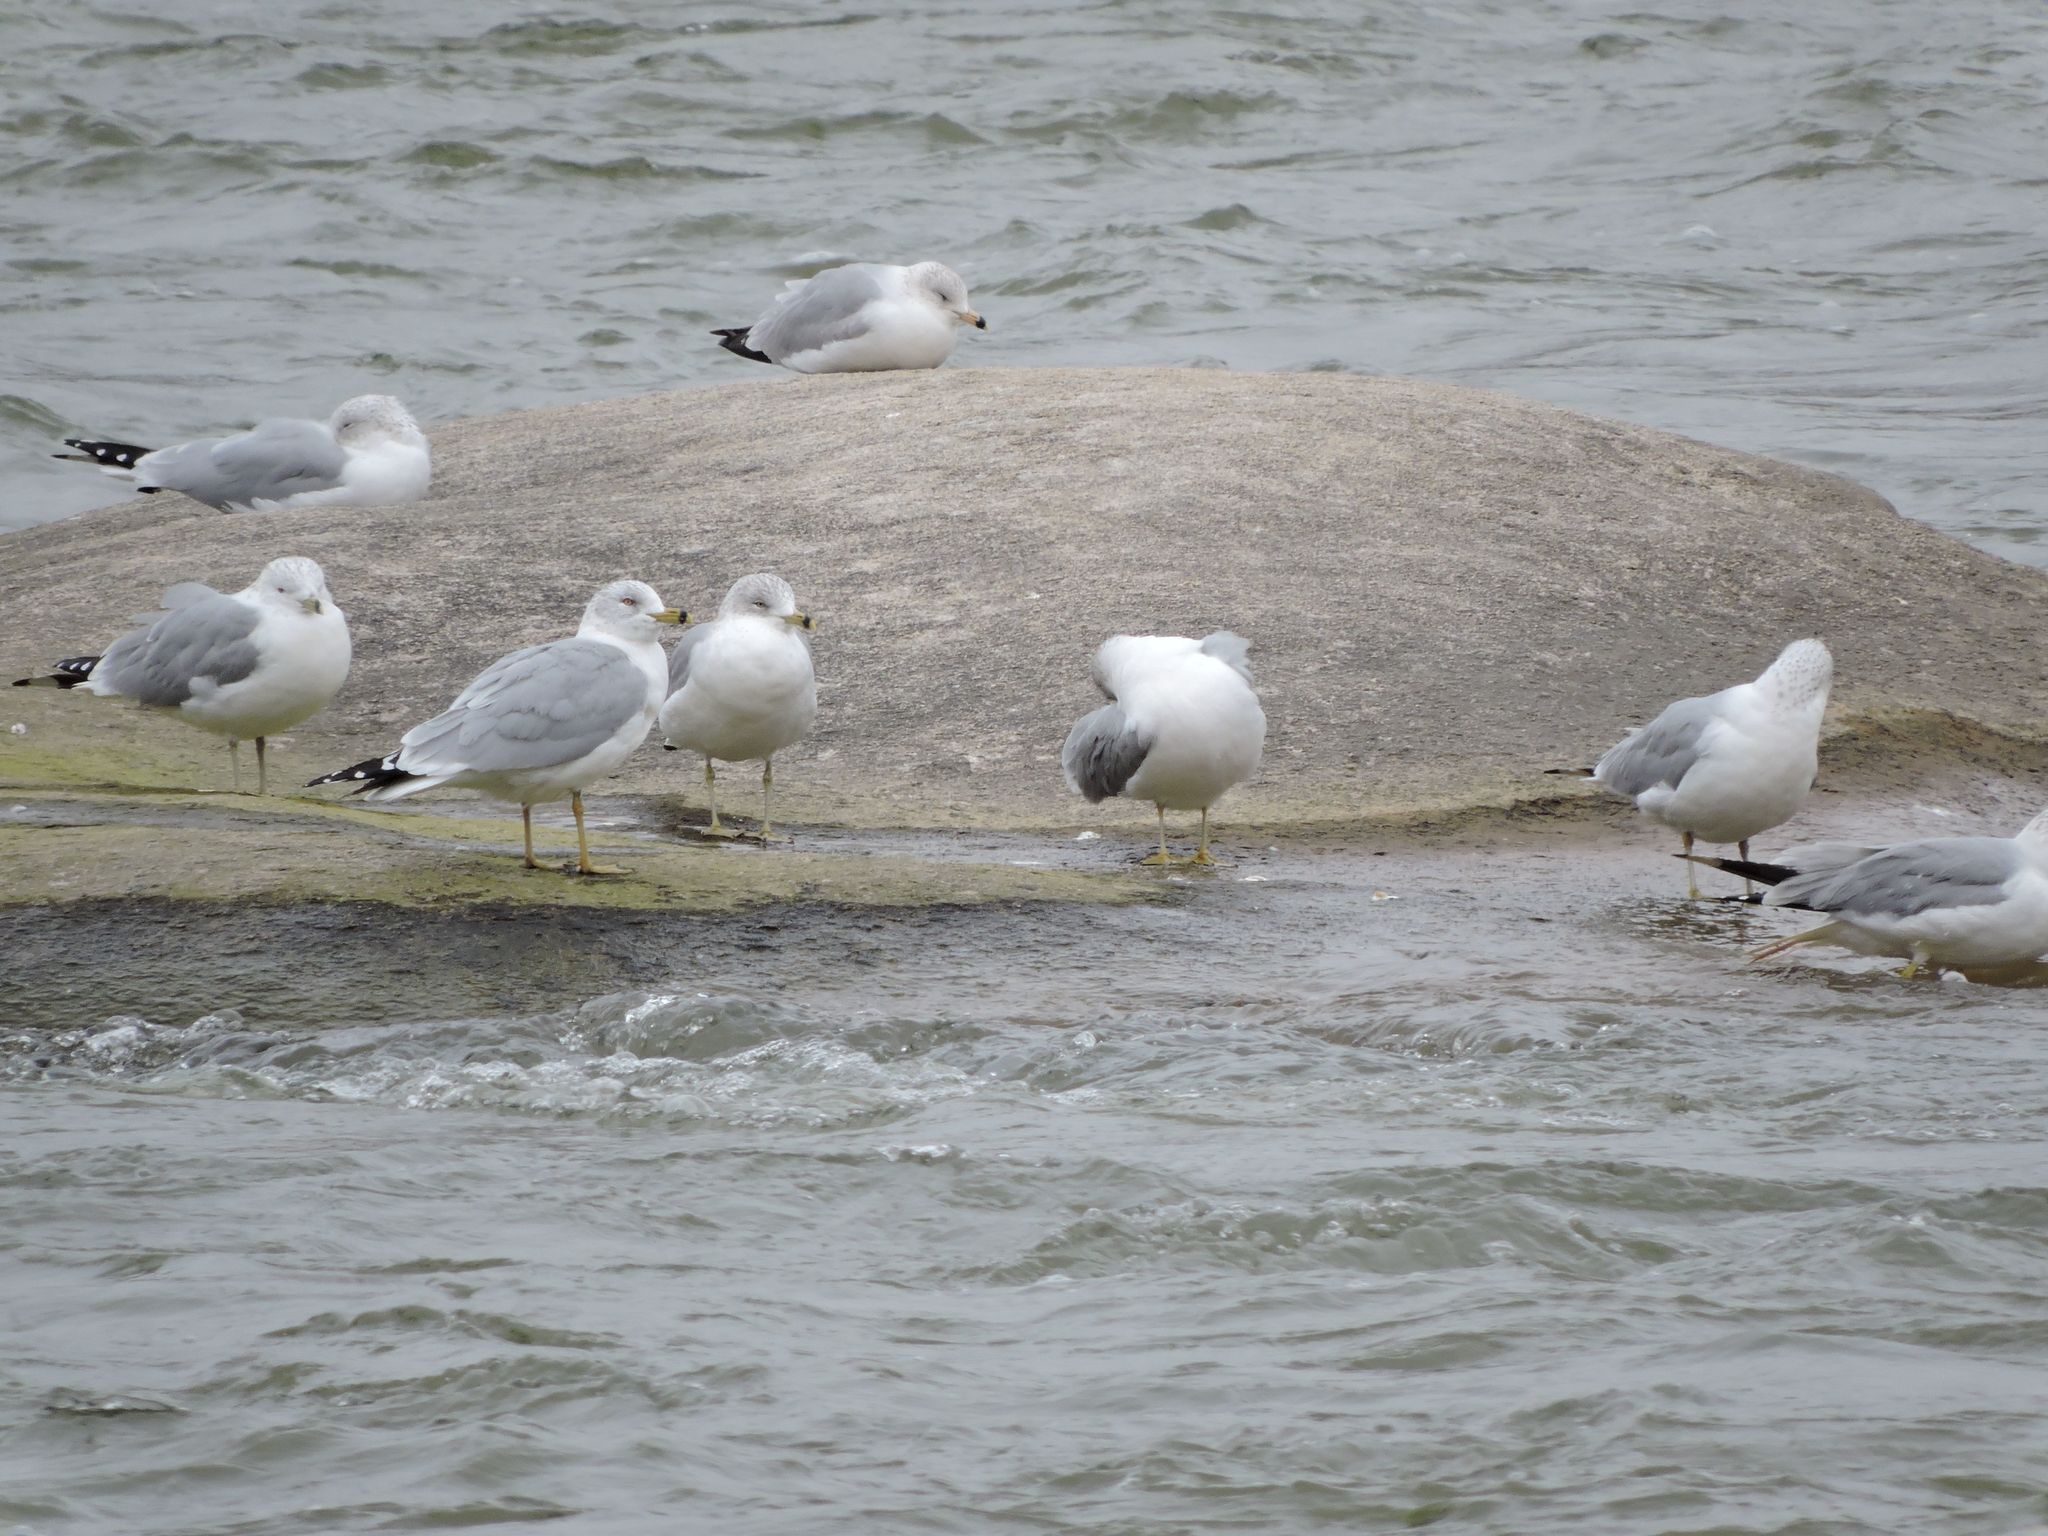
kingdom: Animalia
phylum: Chordata
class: Aves
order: Charadriiformes
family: Laridae
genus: Larus
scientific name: Larus delawarensis
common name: Ring-billed gull
